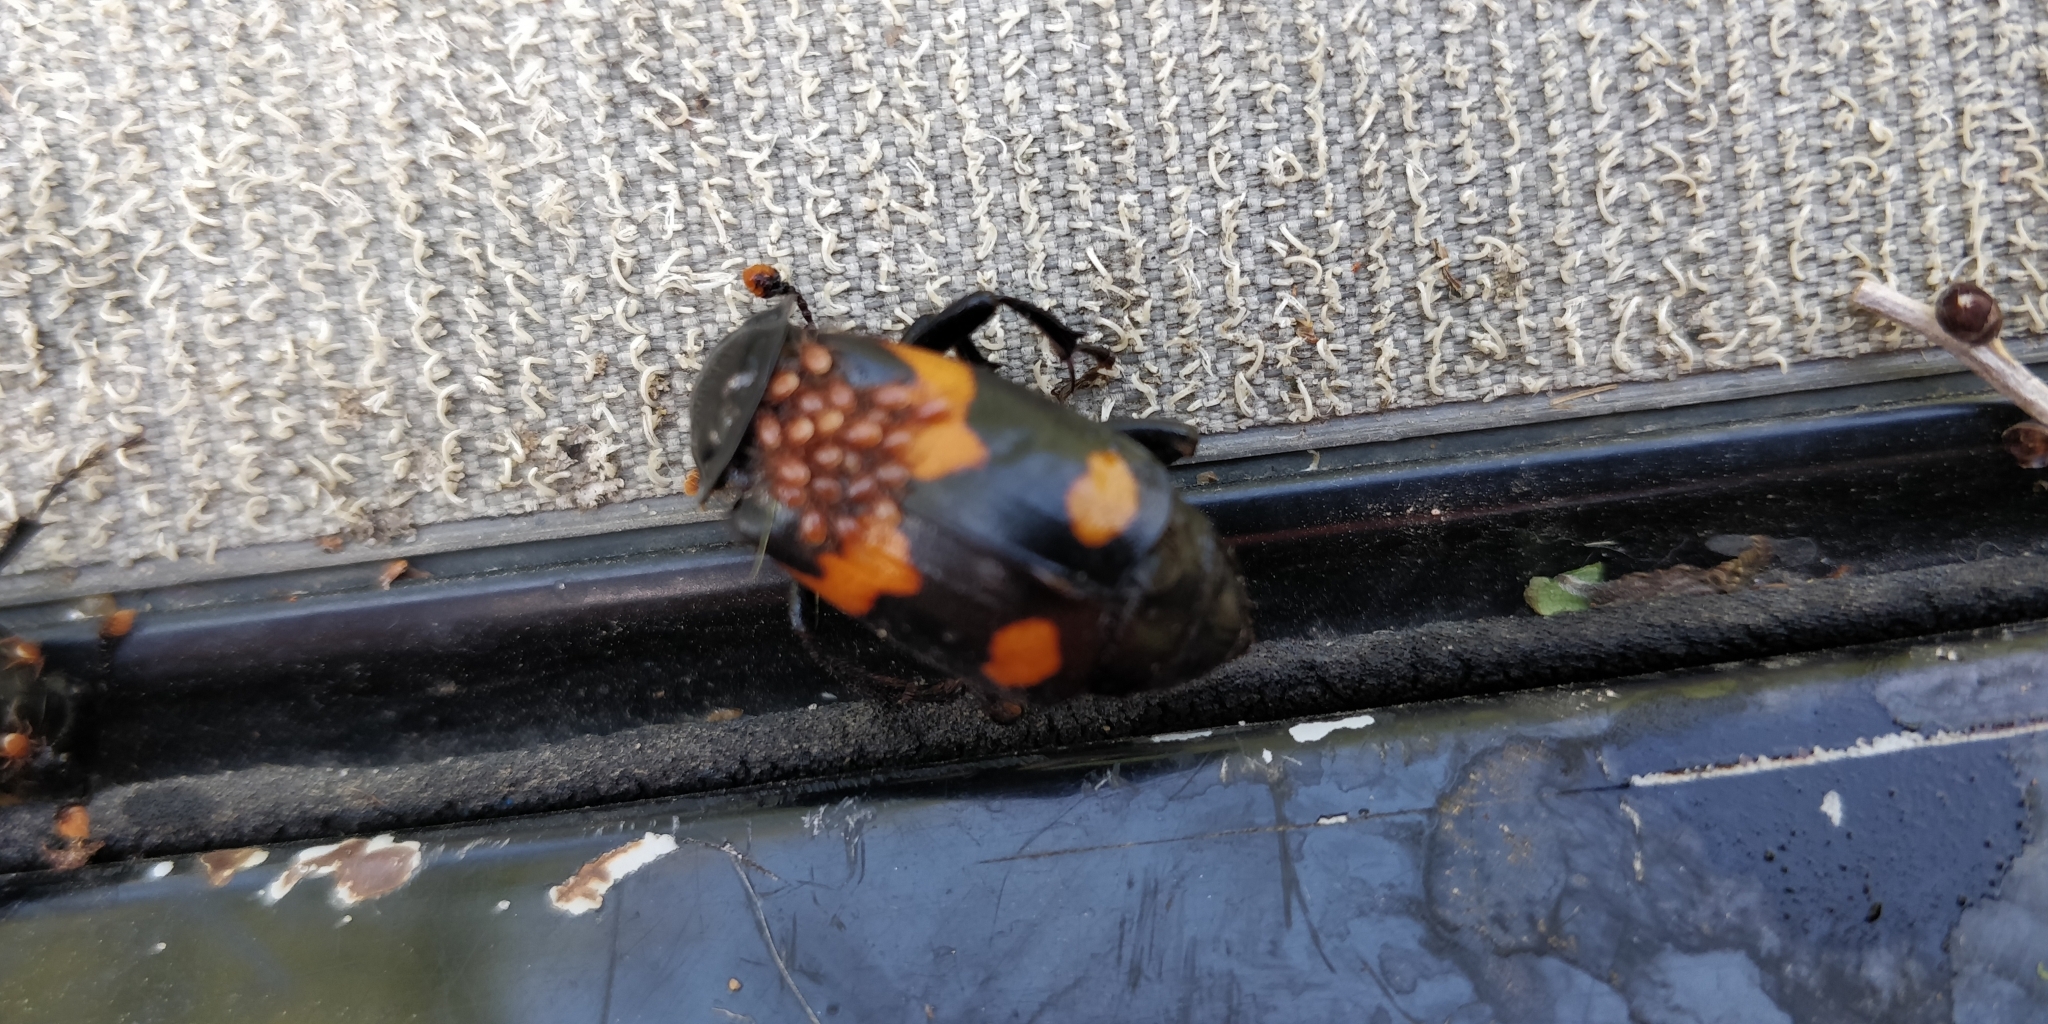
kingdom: Animalia
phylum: Arthropoda
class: Insecta
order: Coleoptera
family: Staphylinidae
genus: Nicrophorus
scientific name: Nicrophorus orbicollis
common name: Roundneck sexton beetle
